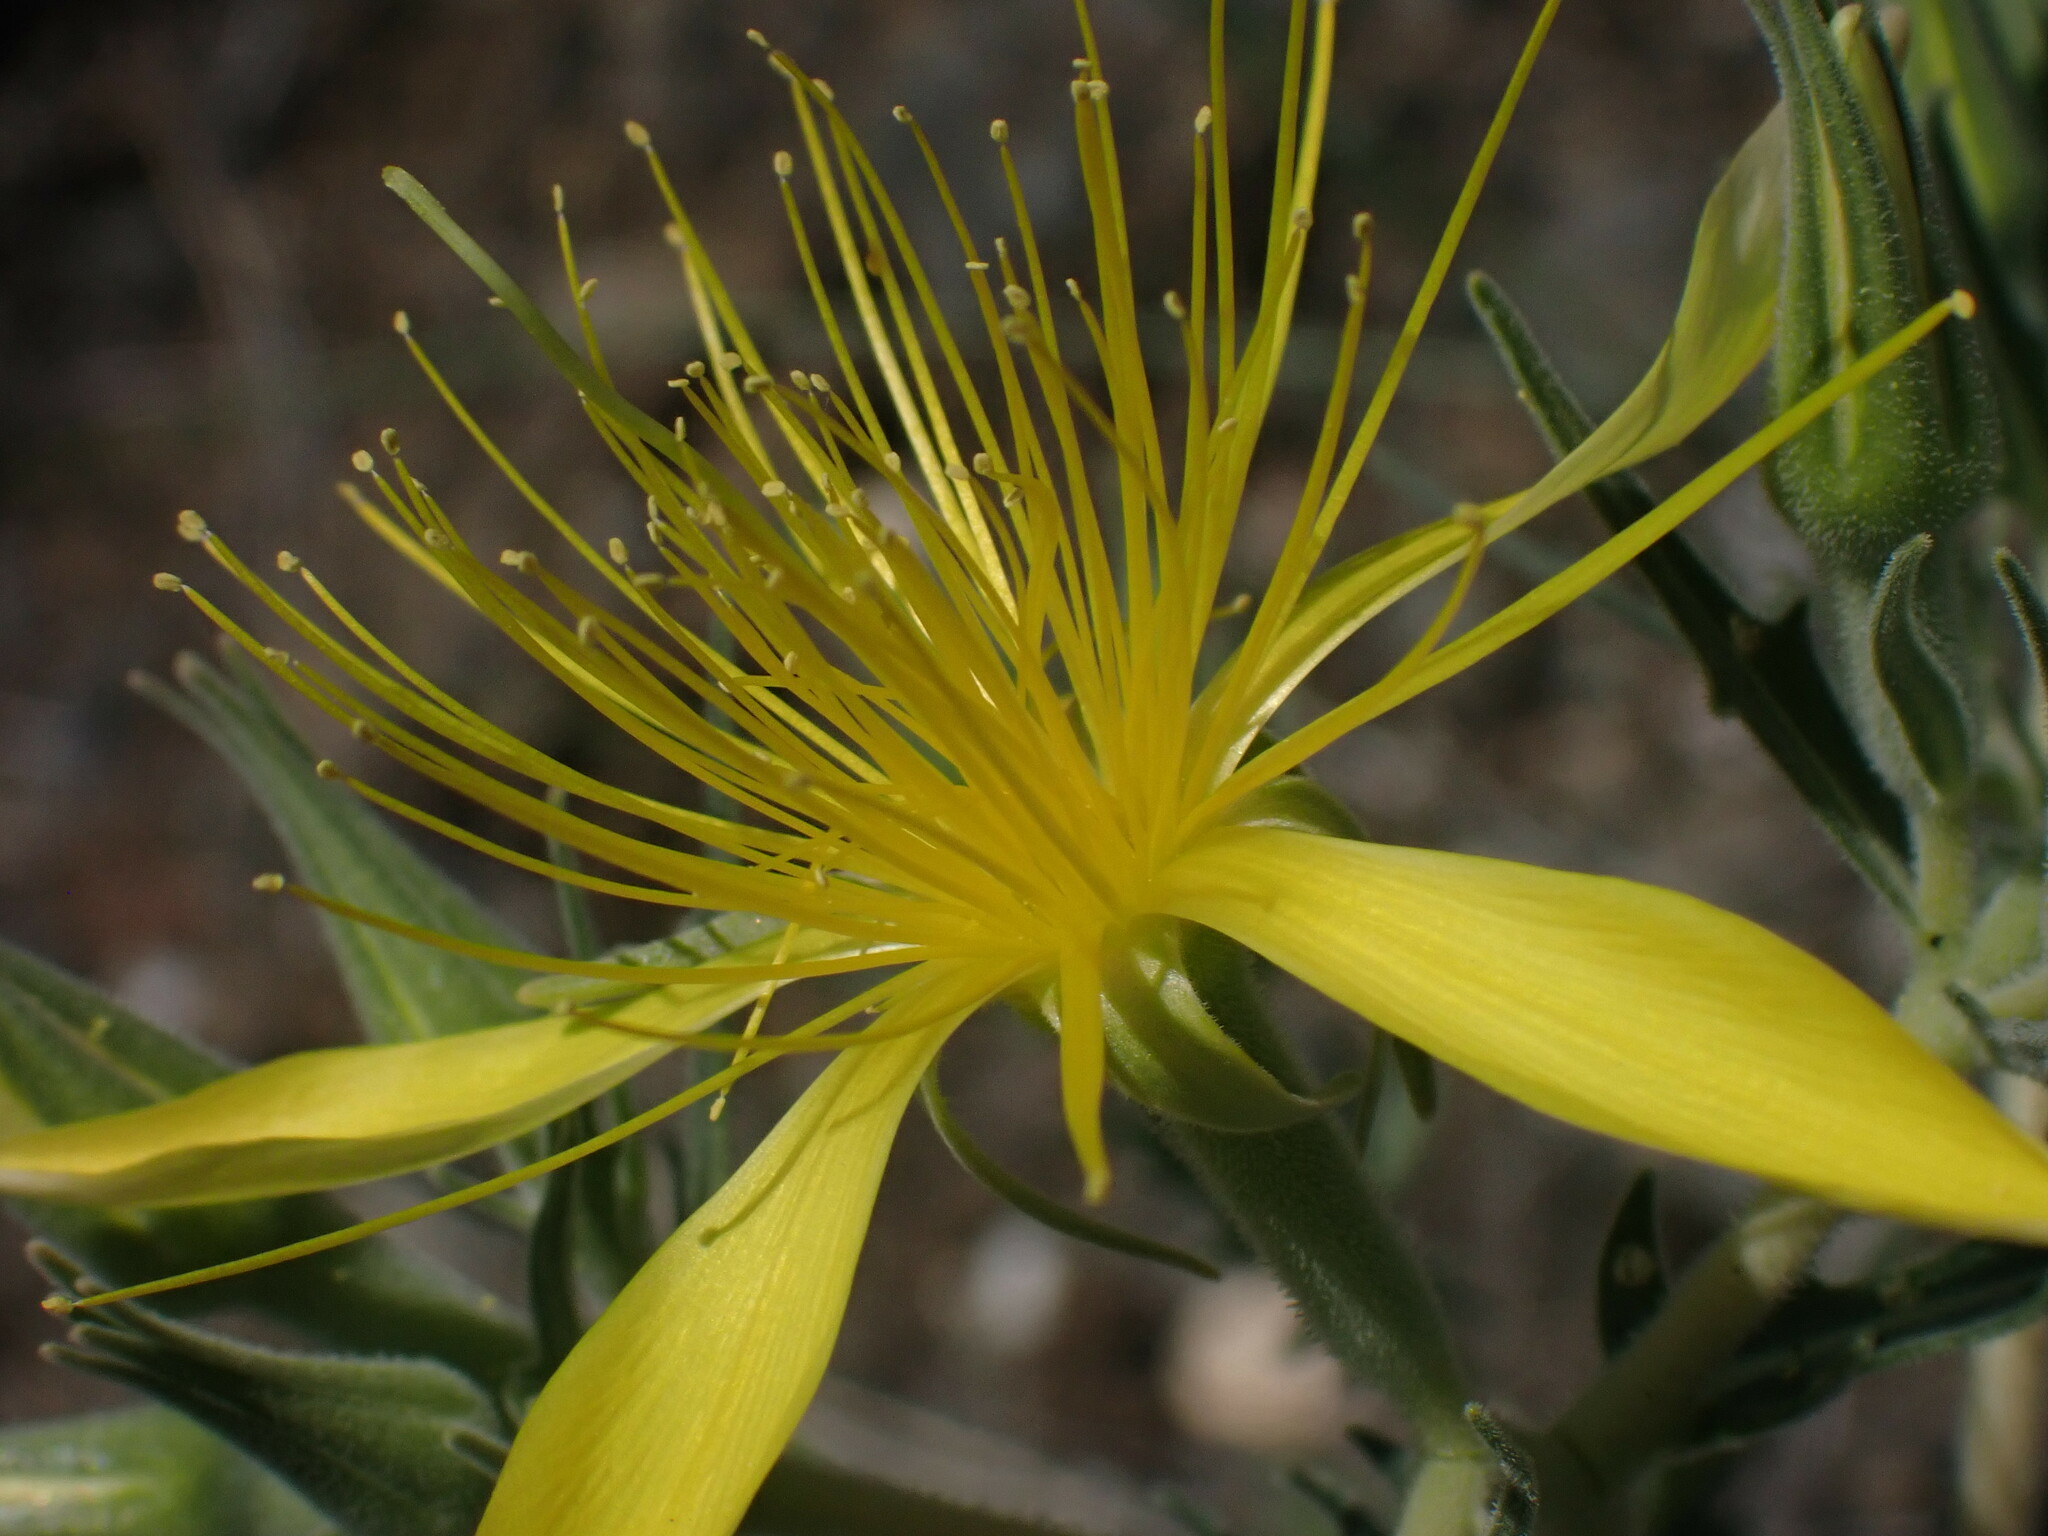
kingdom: Plantae
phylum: Tracheophyta
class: Magnoliopsida
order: Cornales
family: Loasaceae
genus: Mentzelia
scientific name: Mentzelia laevicaulis
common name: Smooth-stem blazingstar
